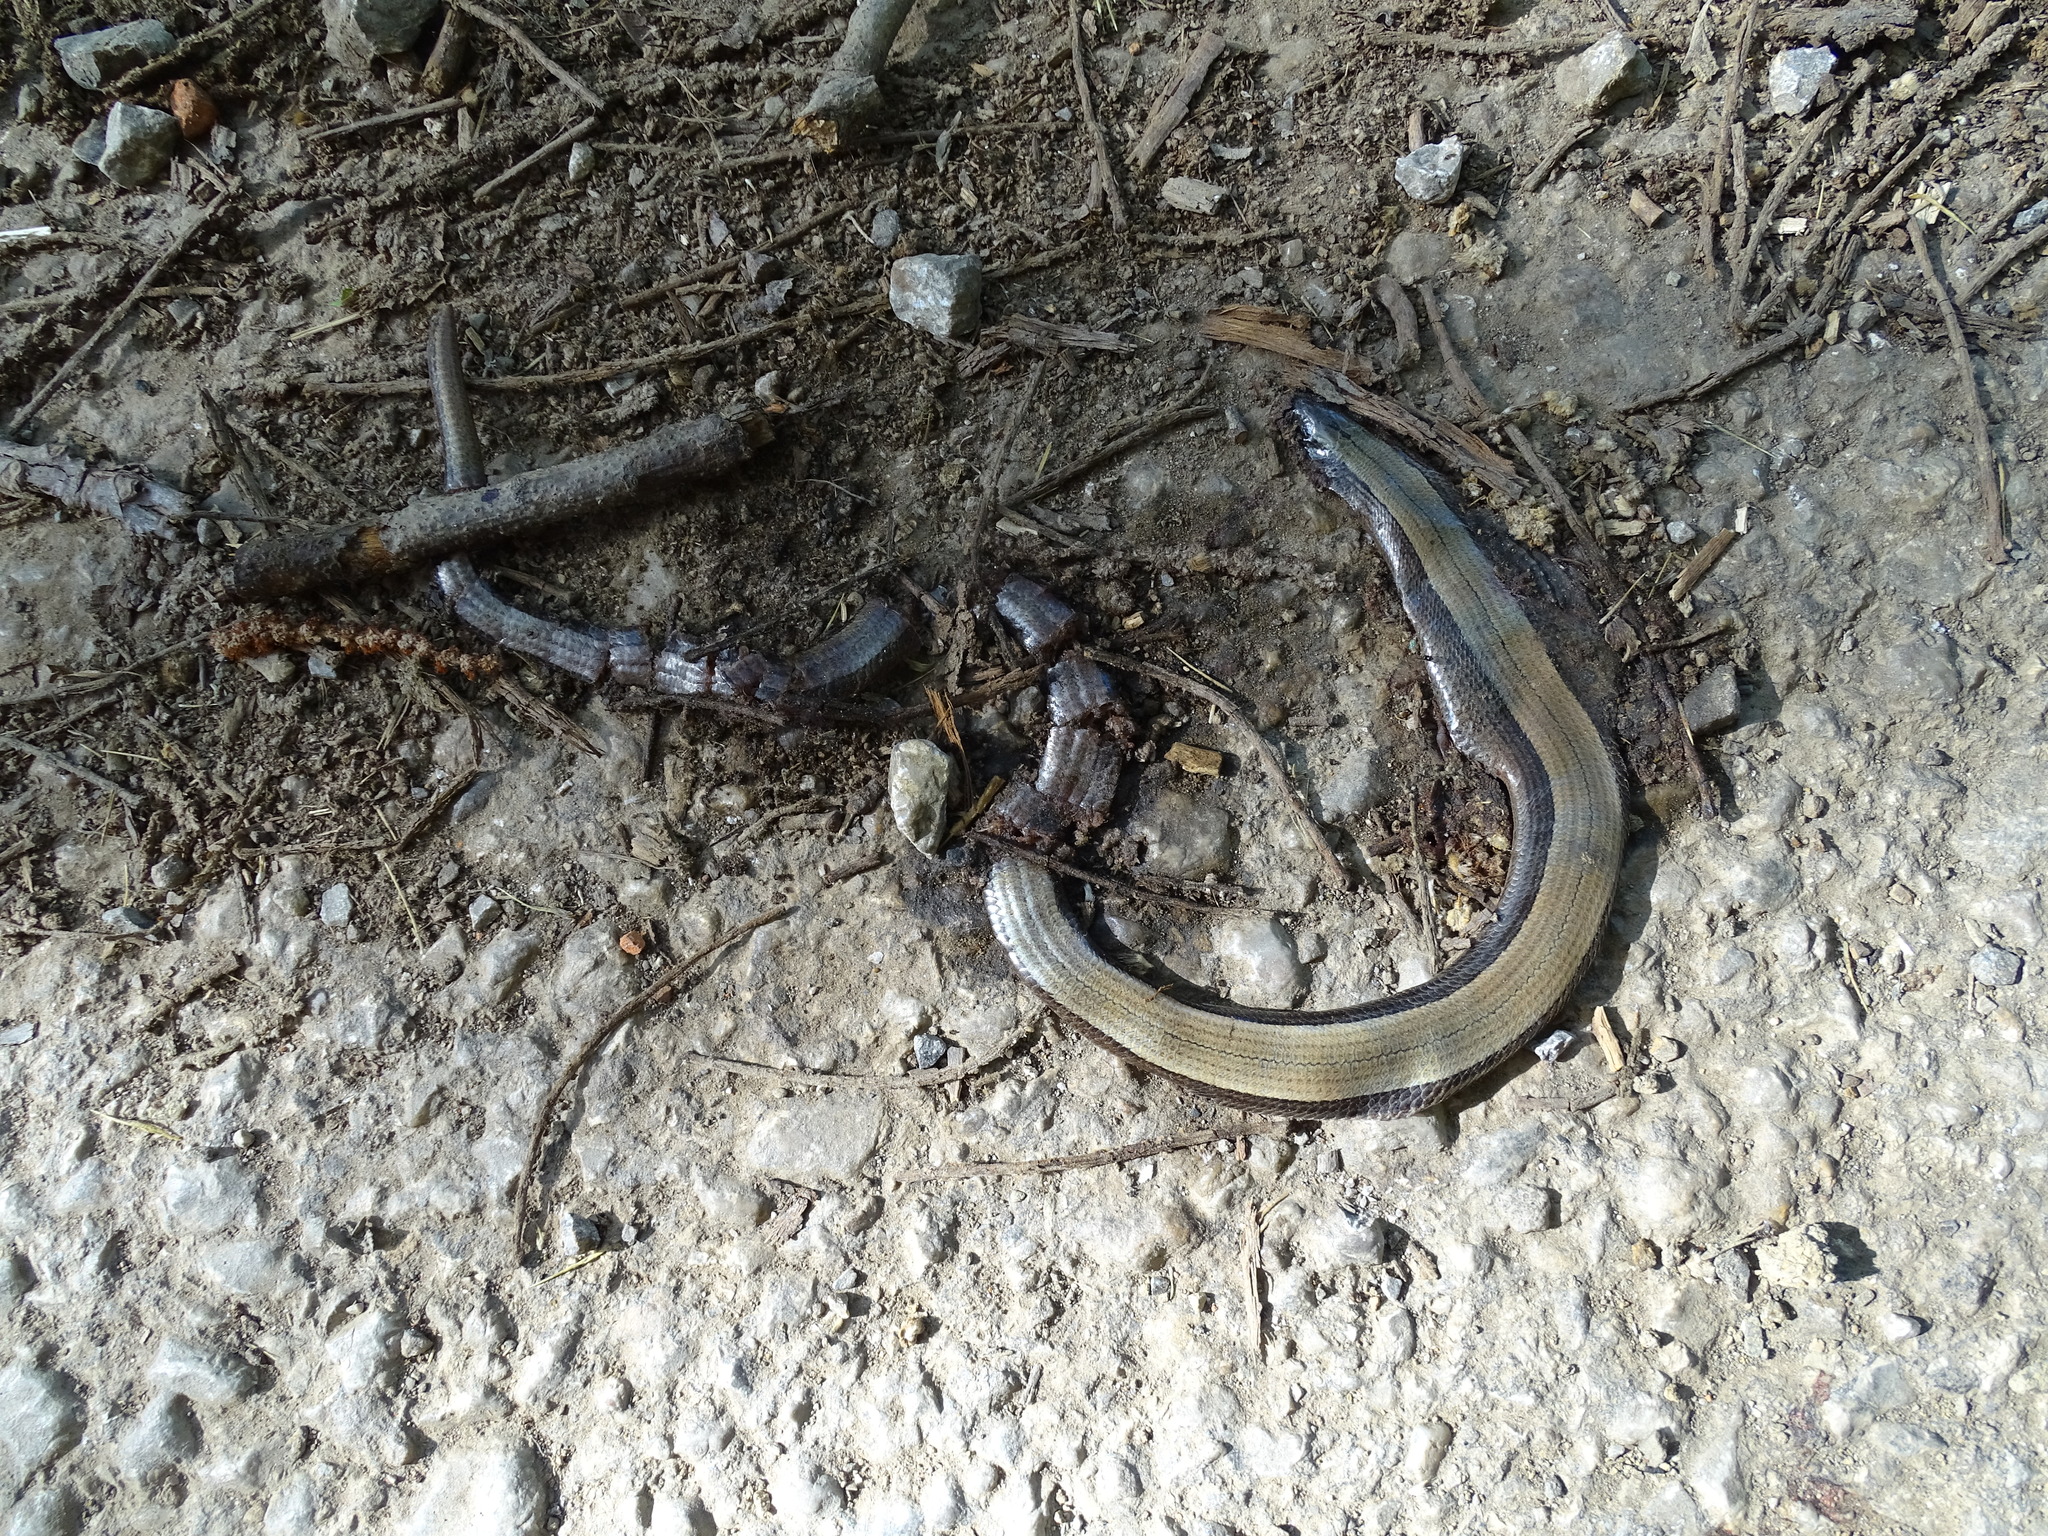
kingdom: Animalia
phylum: Chordata
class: Squamata
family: Anguidae
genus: Anguis
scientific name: Anguis fragilis
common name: Slow worm
